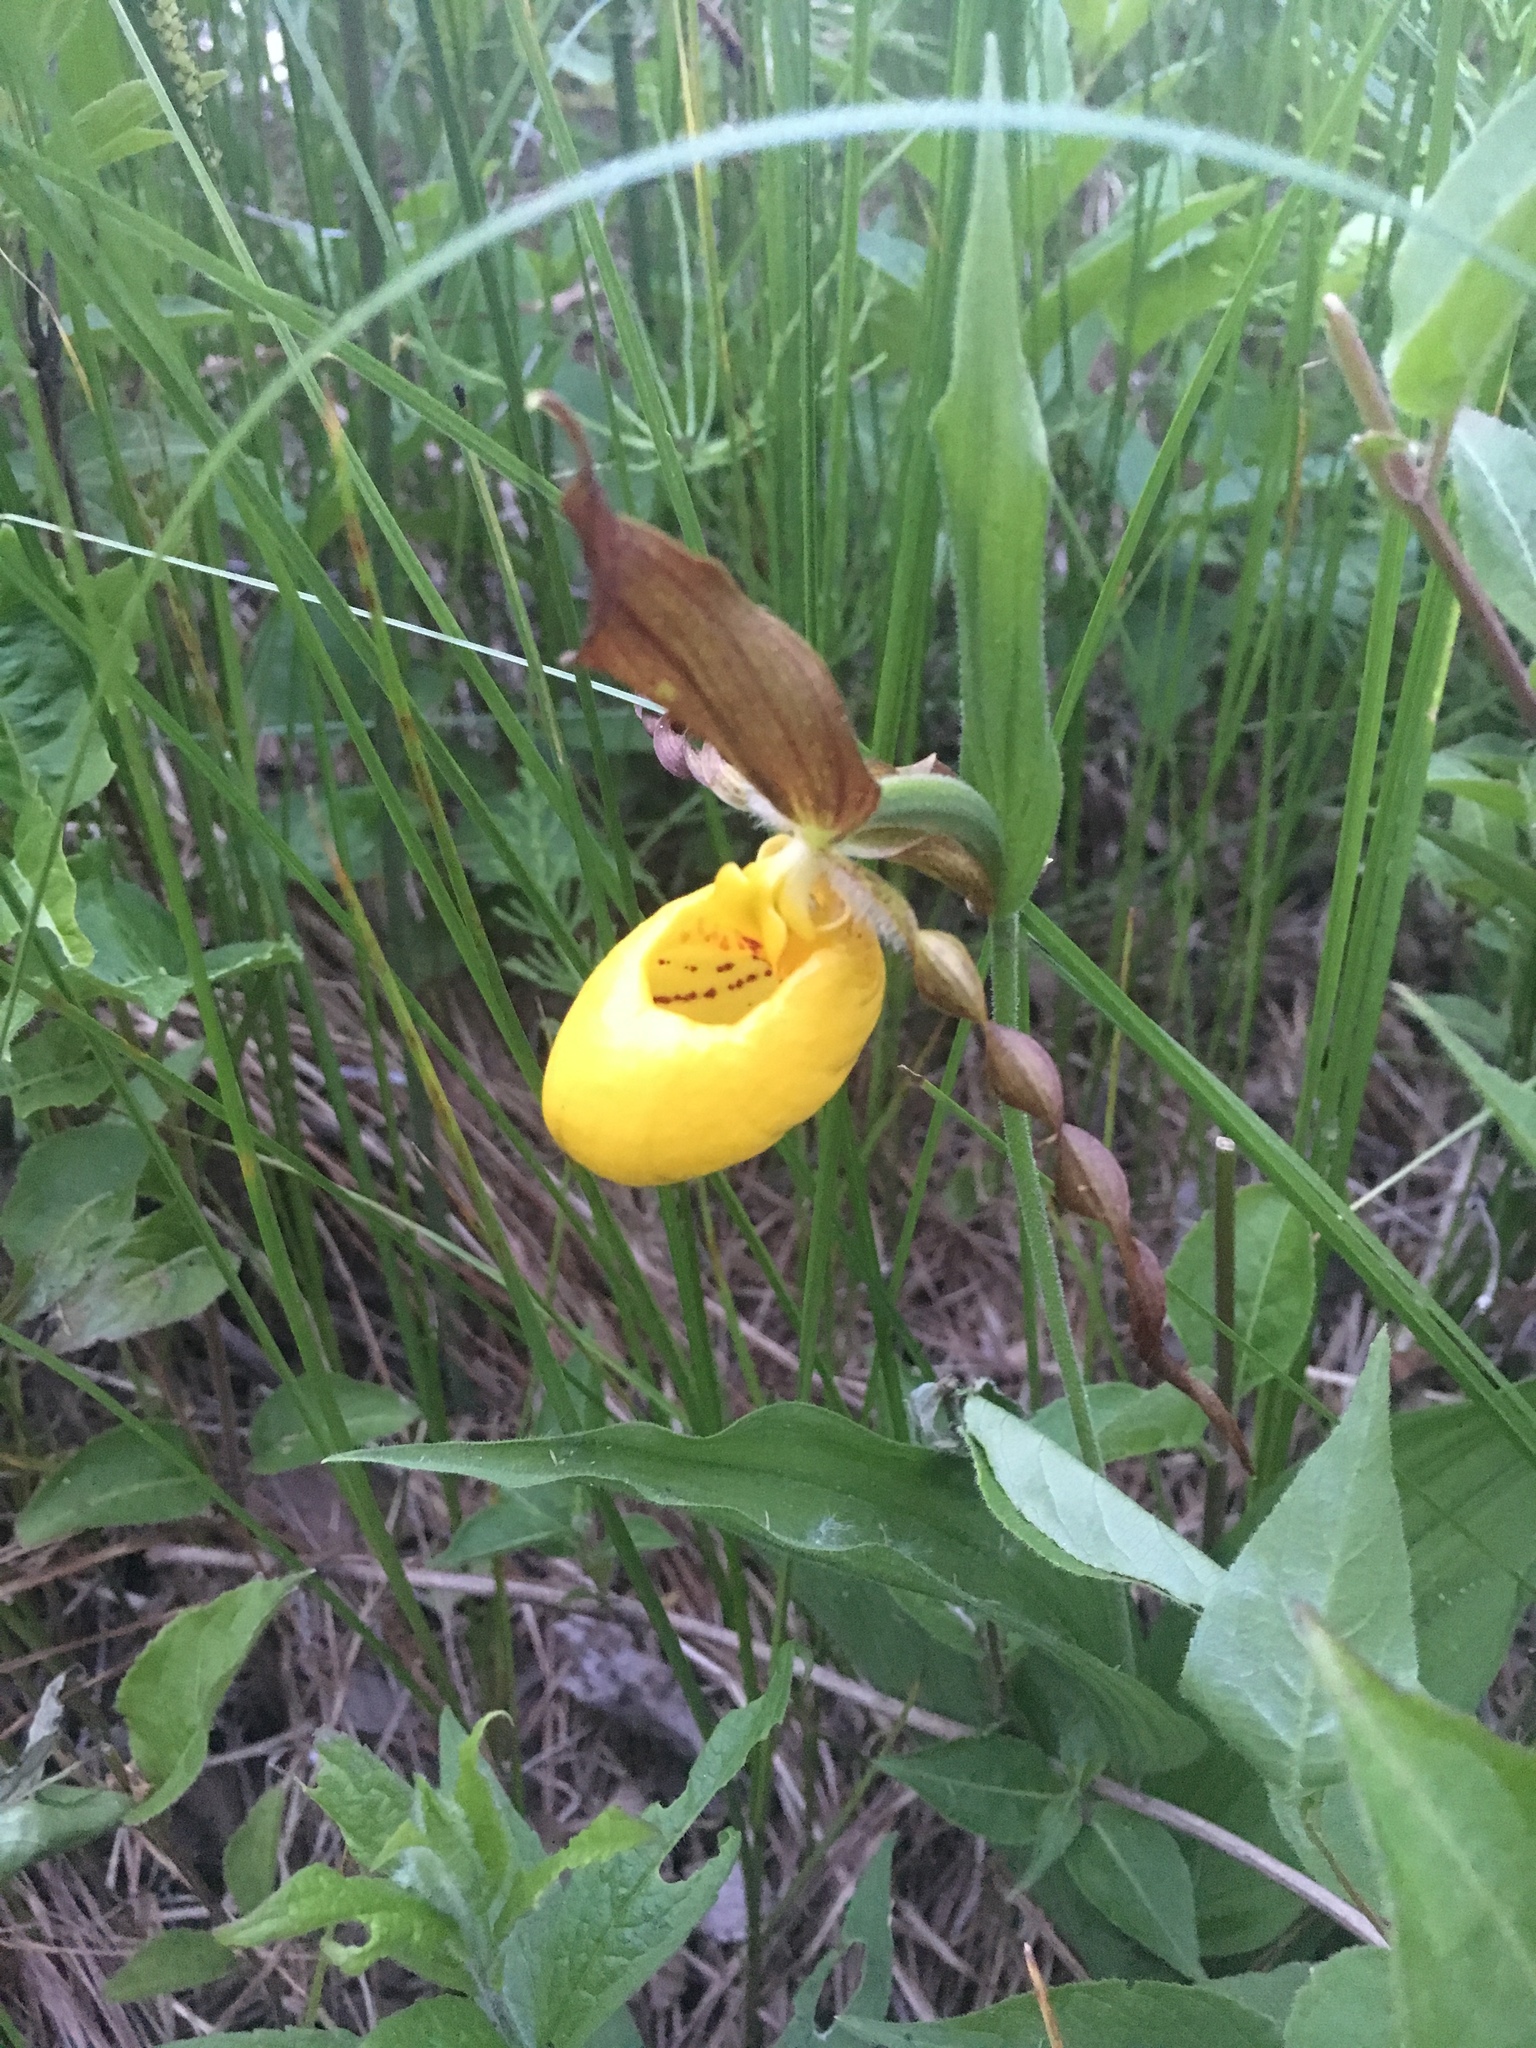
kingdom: Plantae
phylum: Tracheophyta
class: Liliopsida
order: Asparagales
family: Orchidaceae
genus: Cypripedium
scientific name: Cypripedium parviflorum
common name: American yellow lady's-slipper
